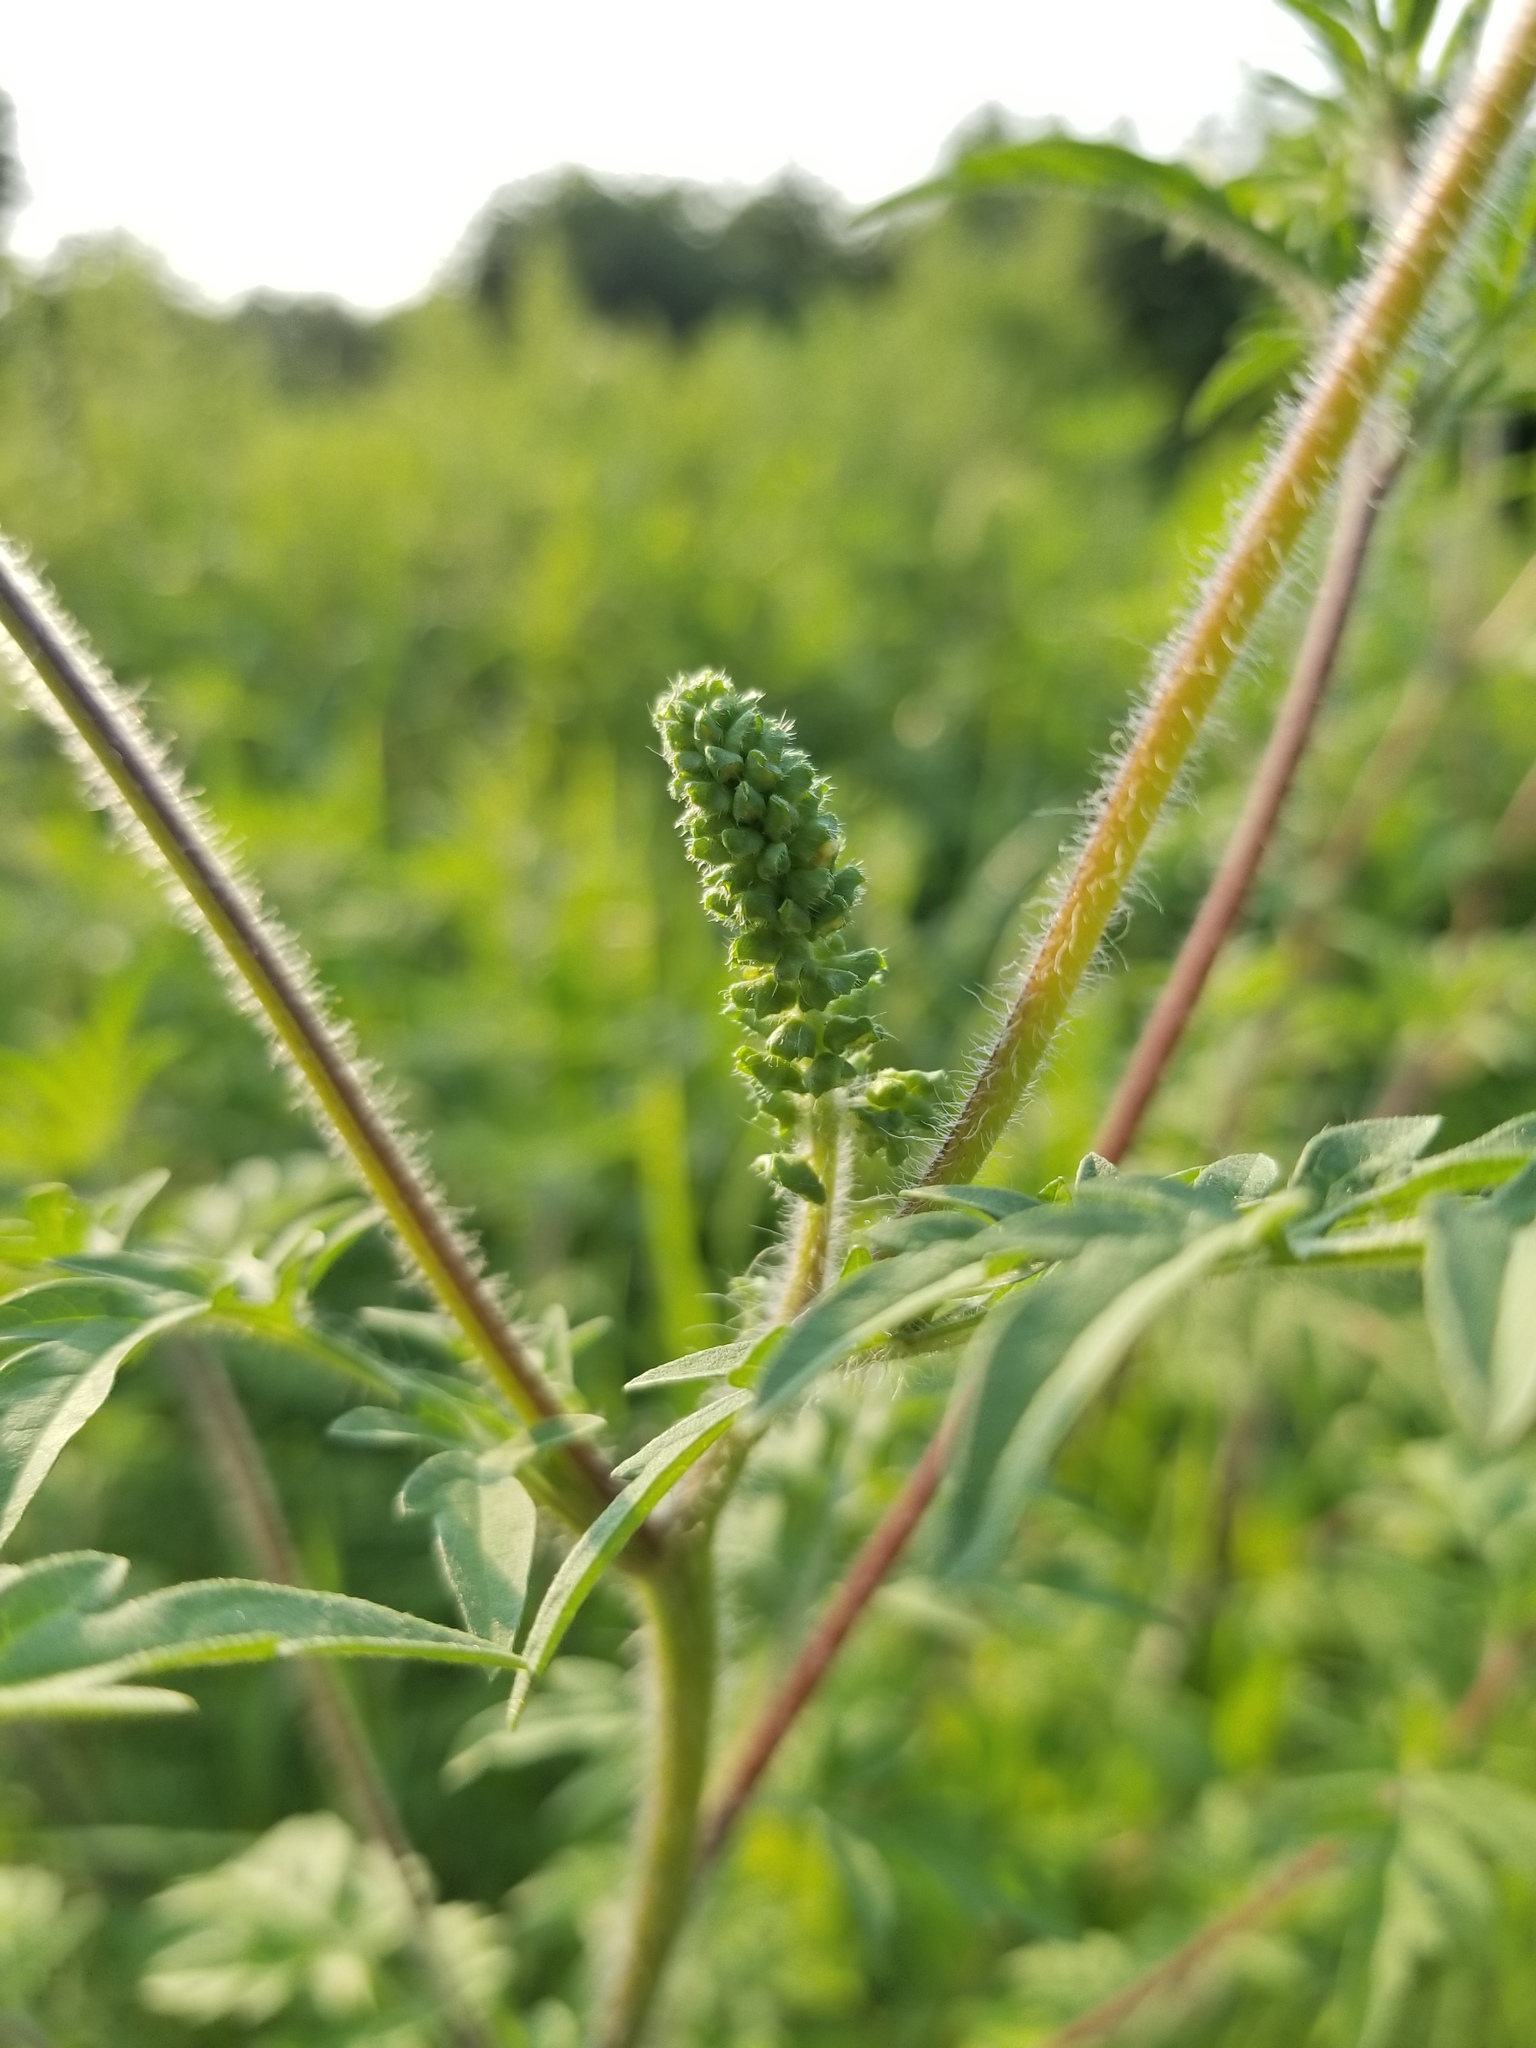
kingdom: Plantae
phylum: Tracheophyta
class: Magnoliopsida
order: Asterales
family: Asteraceae
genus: Ambrosia
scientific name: Ambrosia artemisiifolia
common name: Annual ragweed
